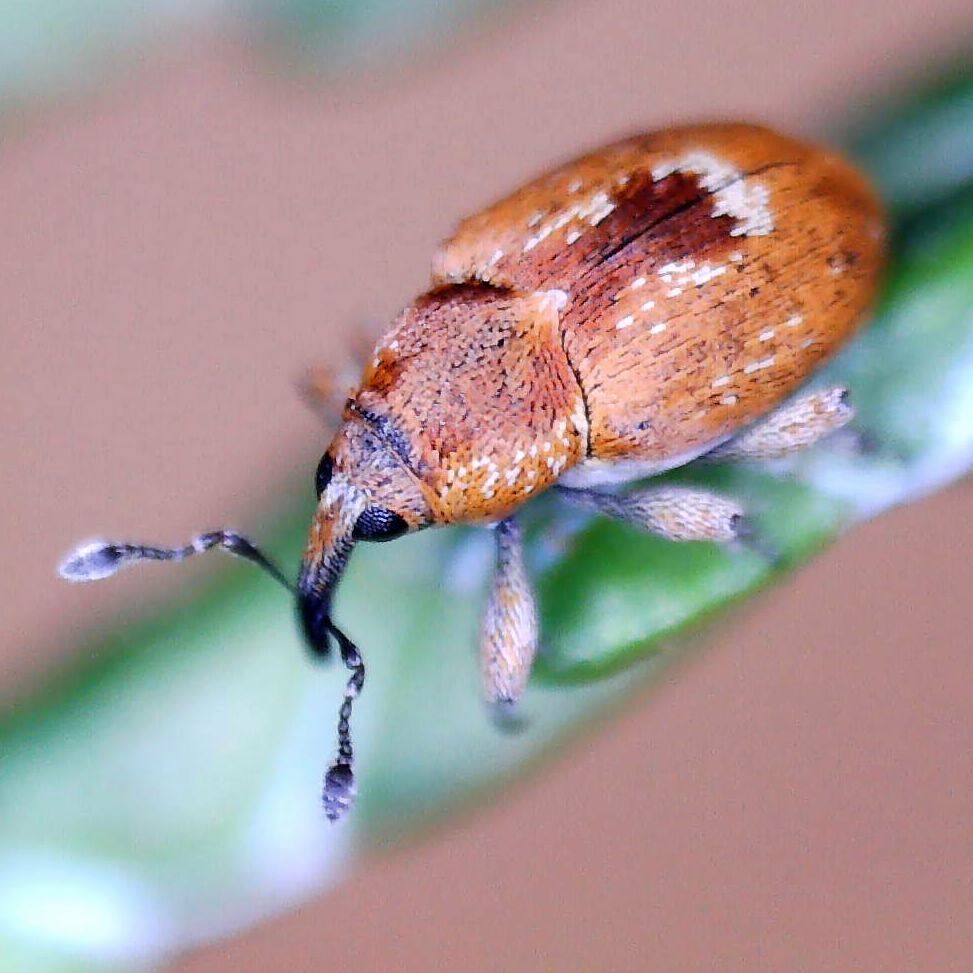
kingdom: Animalia
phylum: Arthropoda
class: Insecta
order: Coleoptera
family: Curculionidae
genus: Sibinia
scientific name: Sibinia primita
